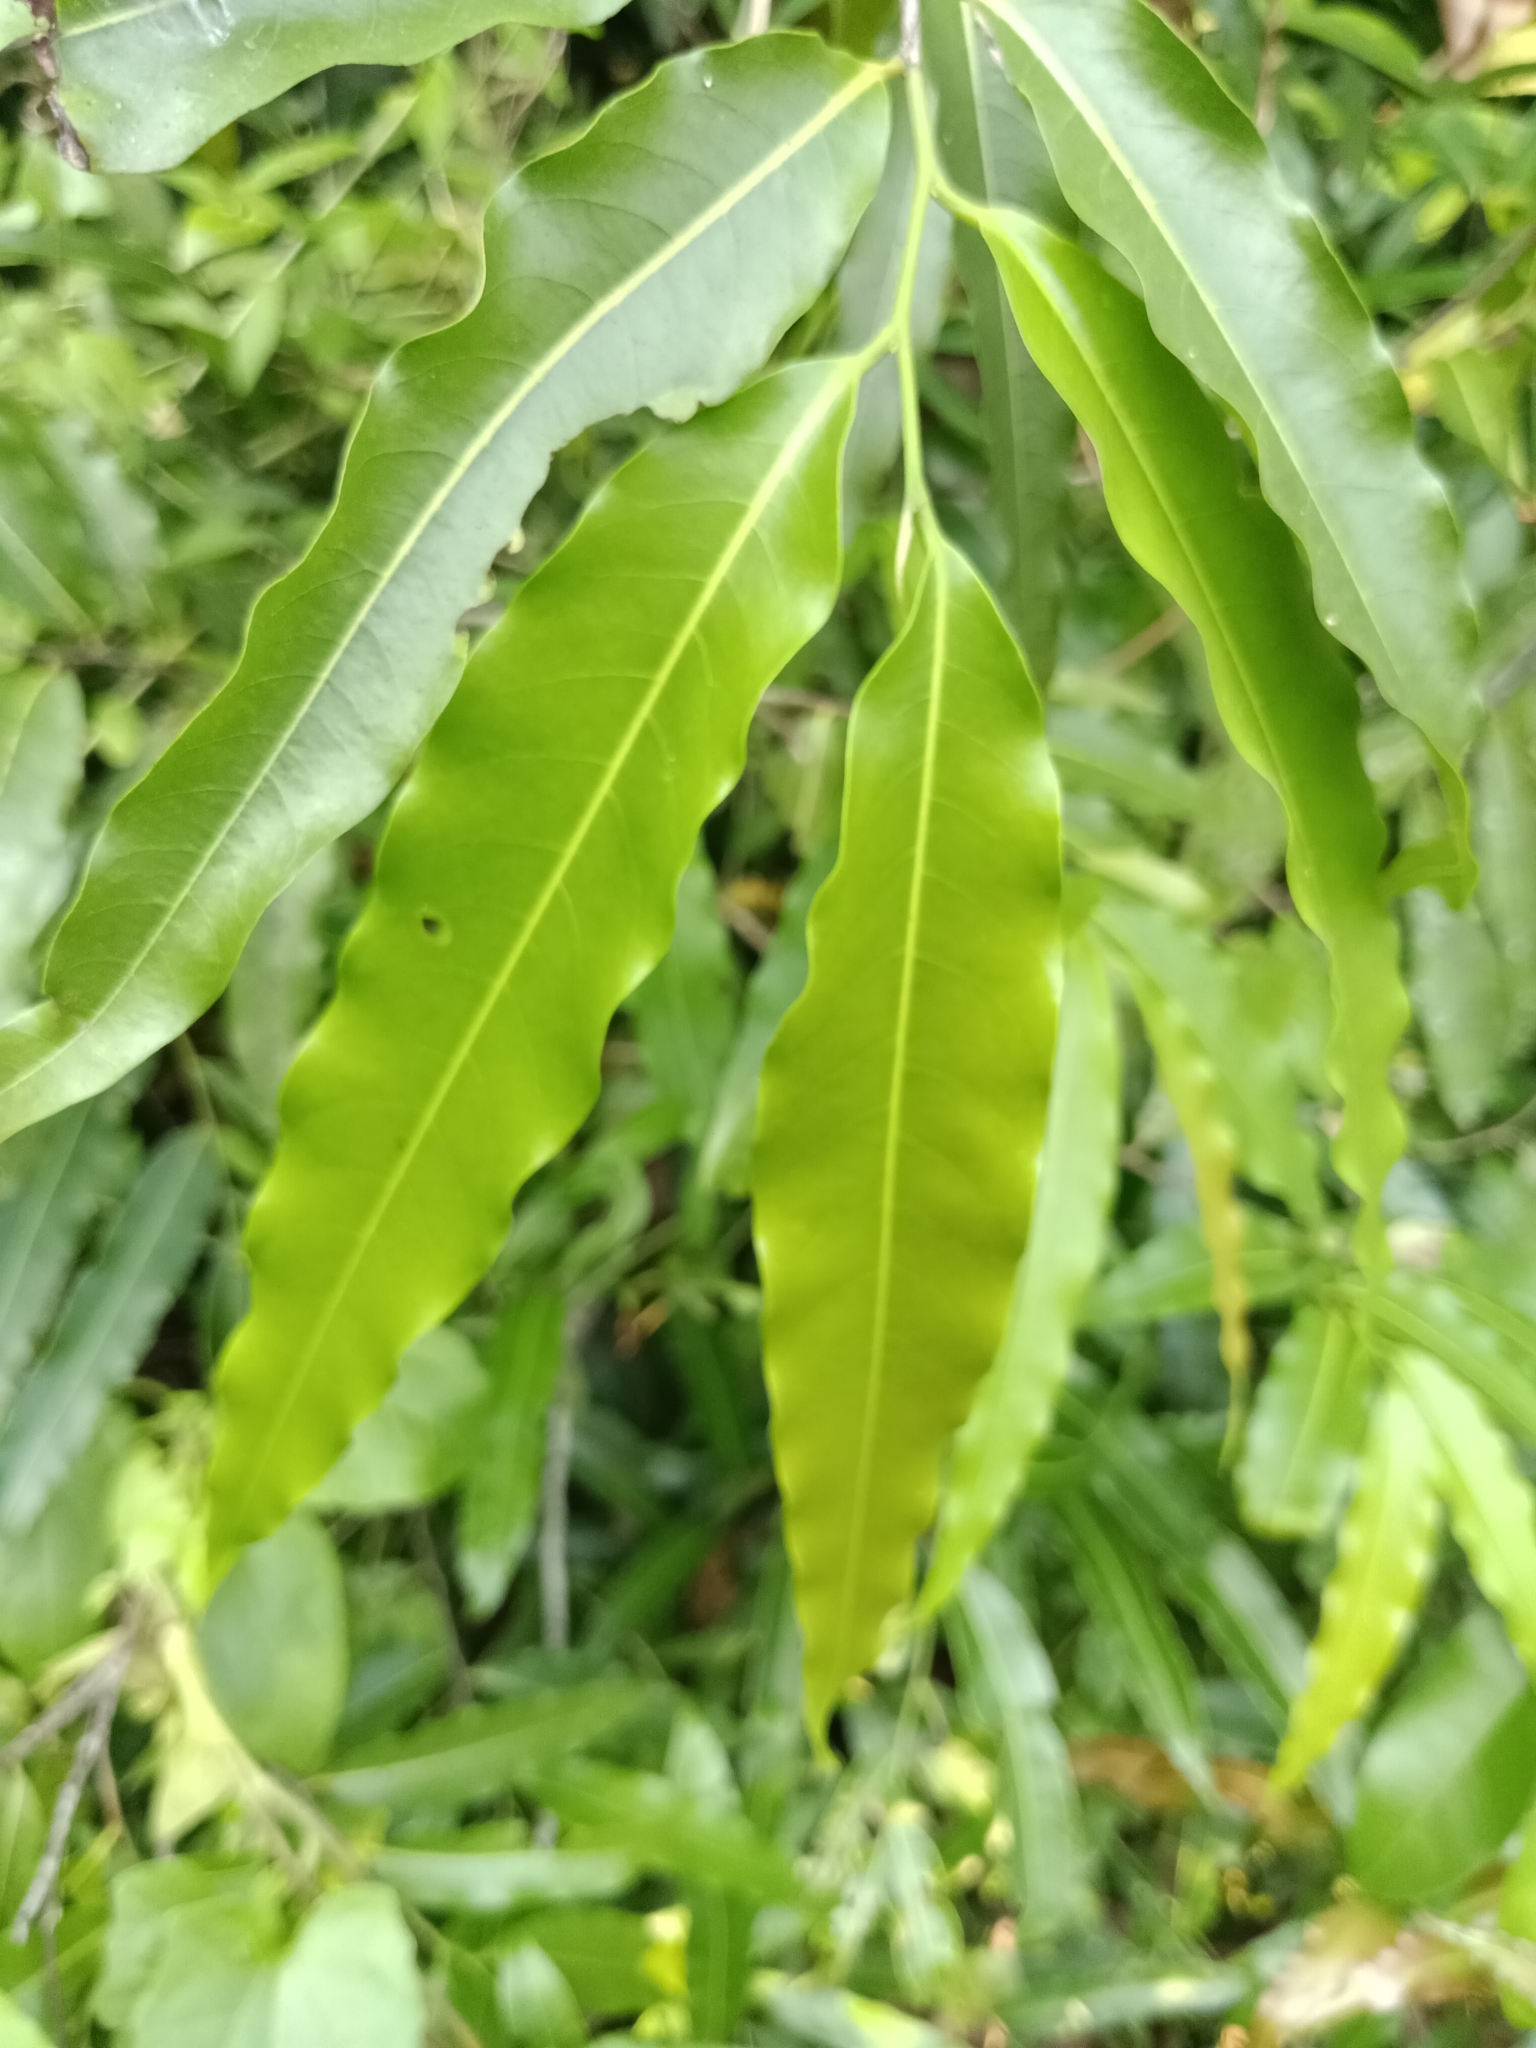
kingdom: Plantae
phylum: Tracheophyta
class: Magnoliopsida
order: Magnoliales
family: Annonaceae
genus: Polyalthia
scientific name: Polyalthia longifolia
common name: Cemetery-tree
